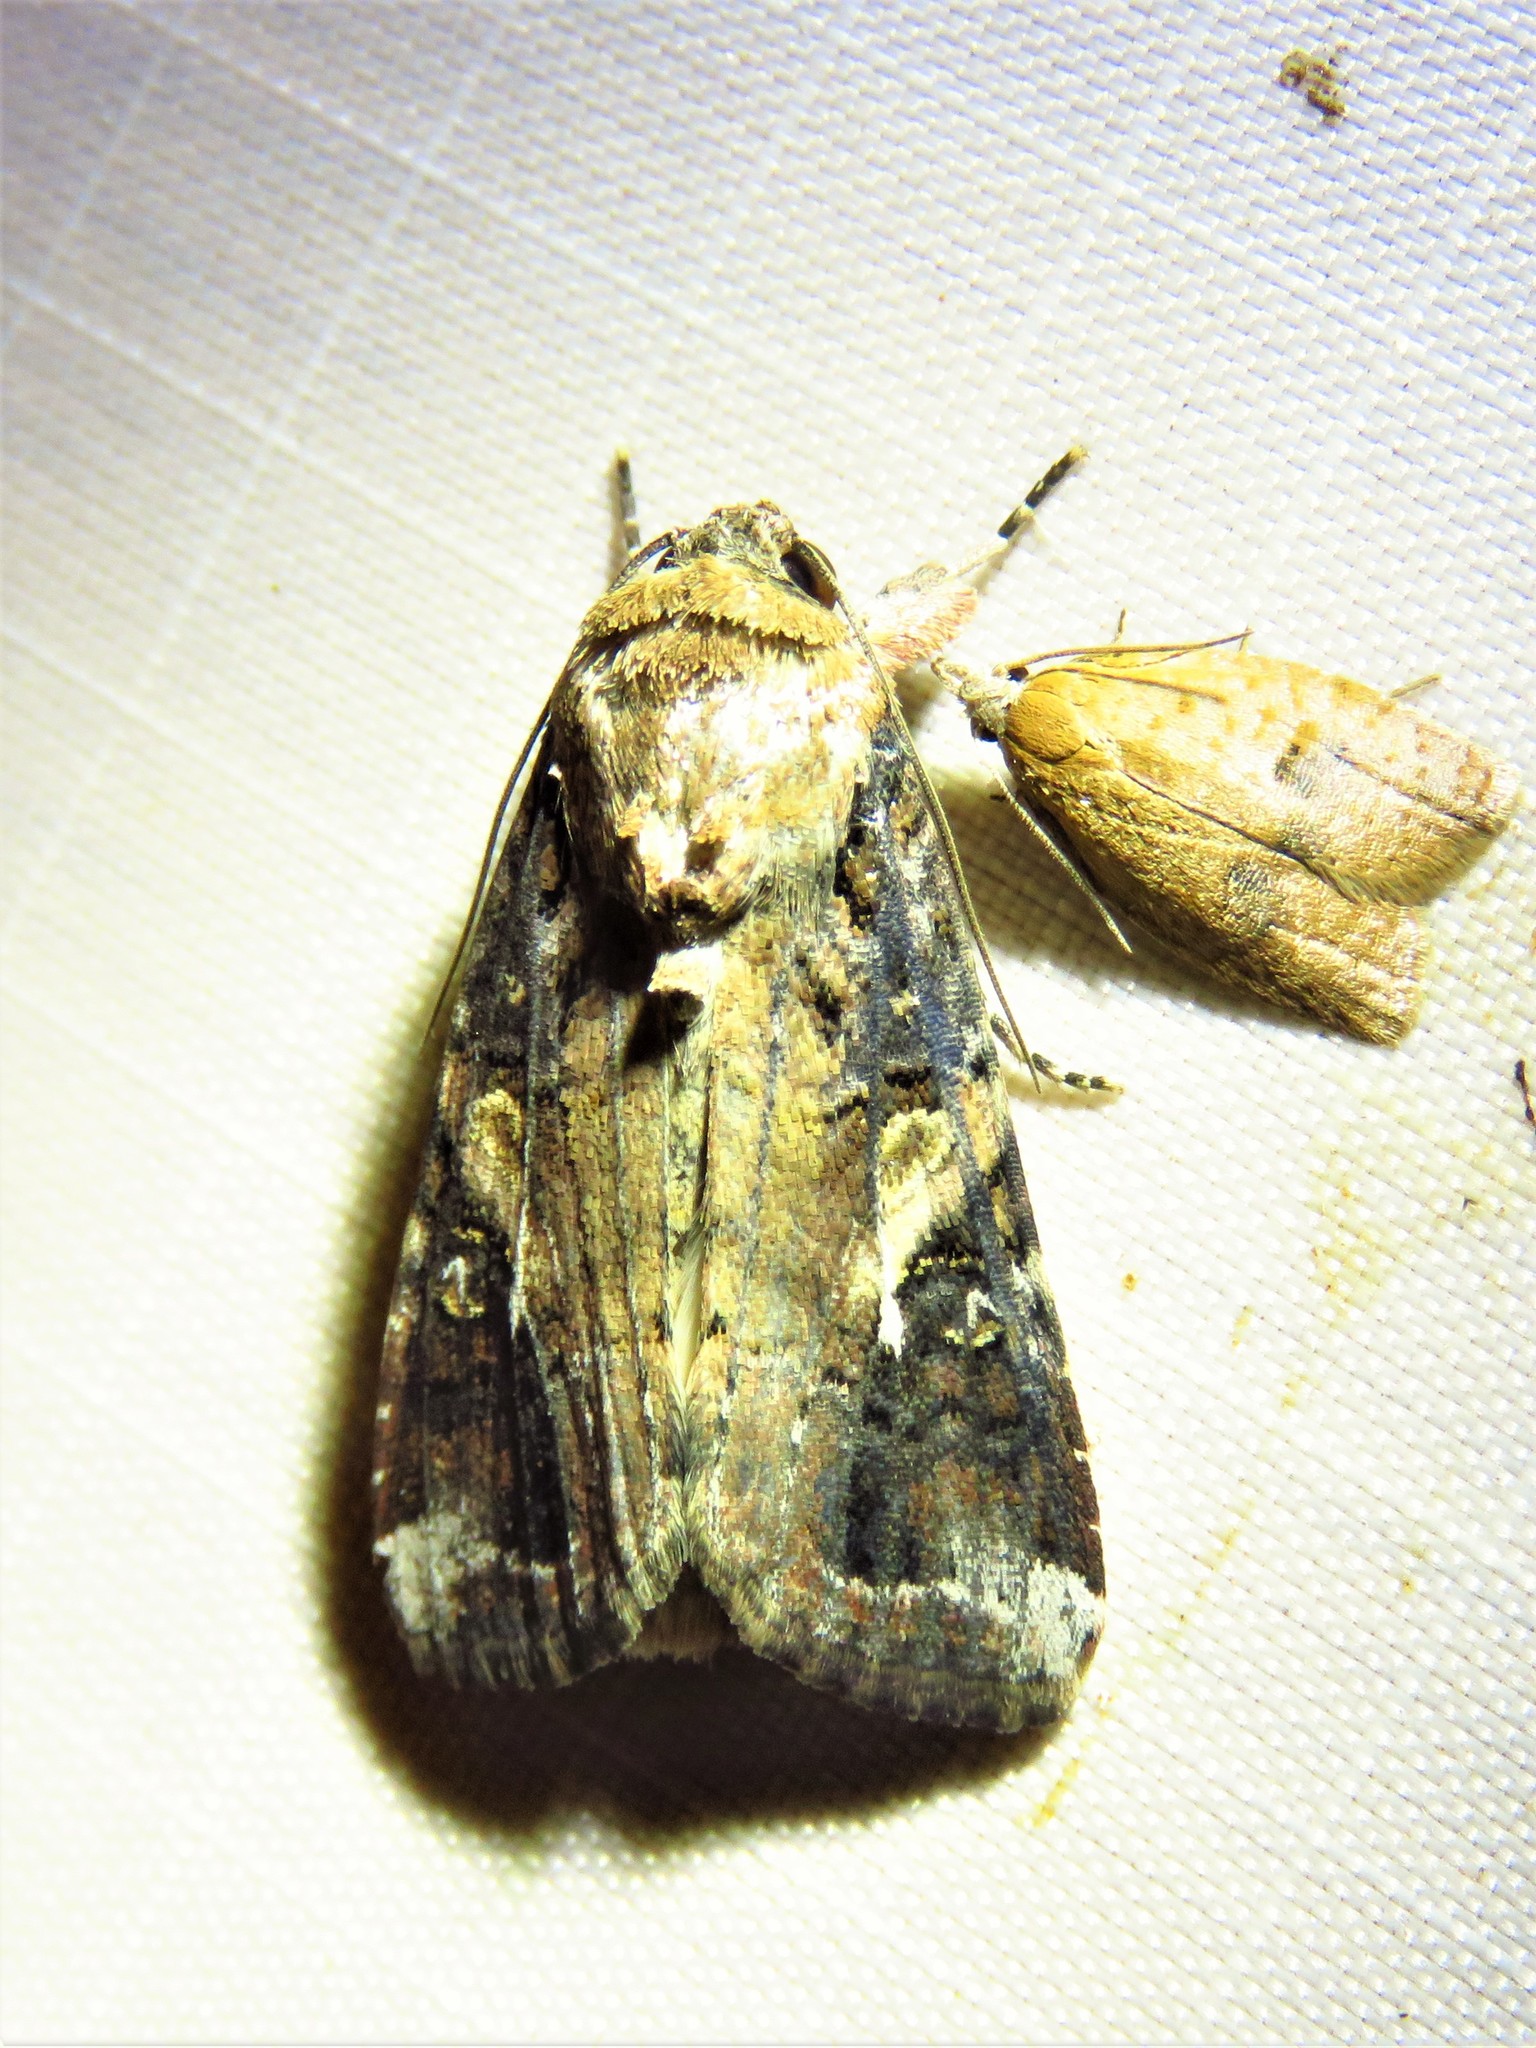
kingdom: Animalia
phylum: Arthropoda
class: Insecta
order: Lepidoptera
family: Noctuidae
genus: Spodoptera
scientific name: Spodoptera frugiperda
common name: Fall armyworm
